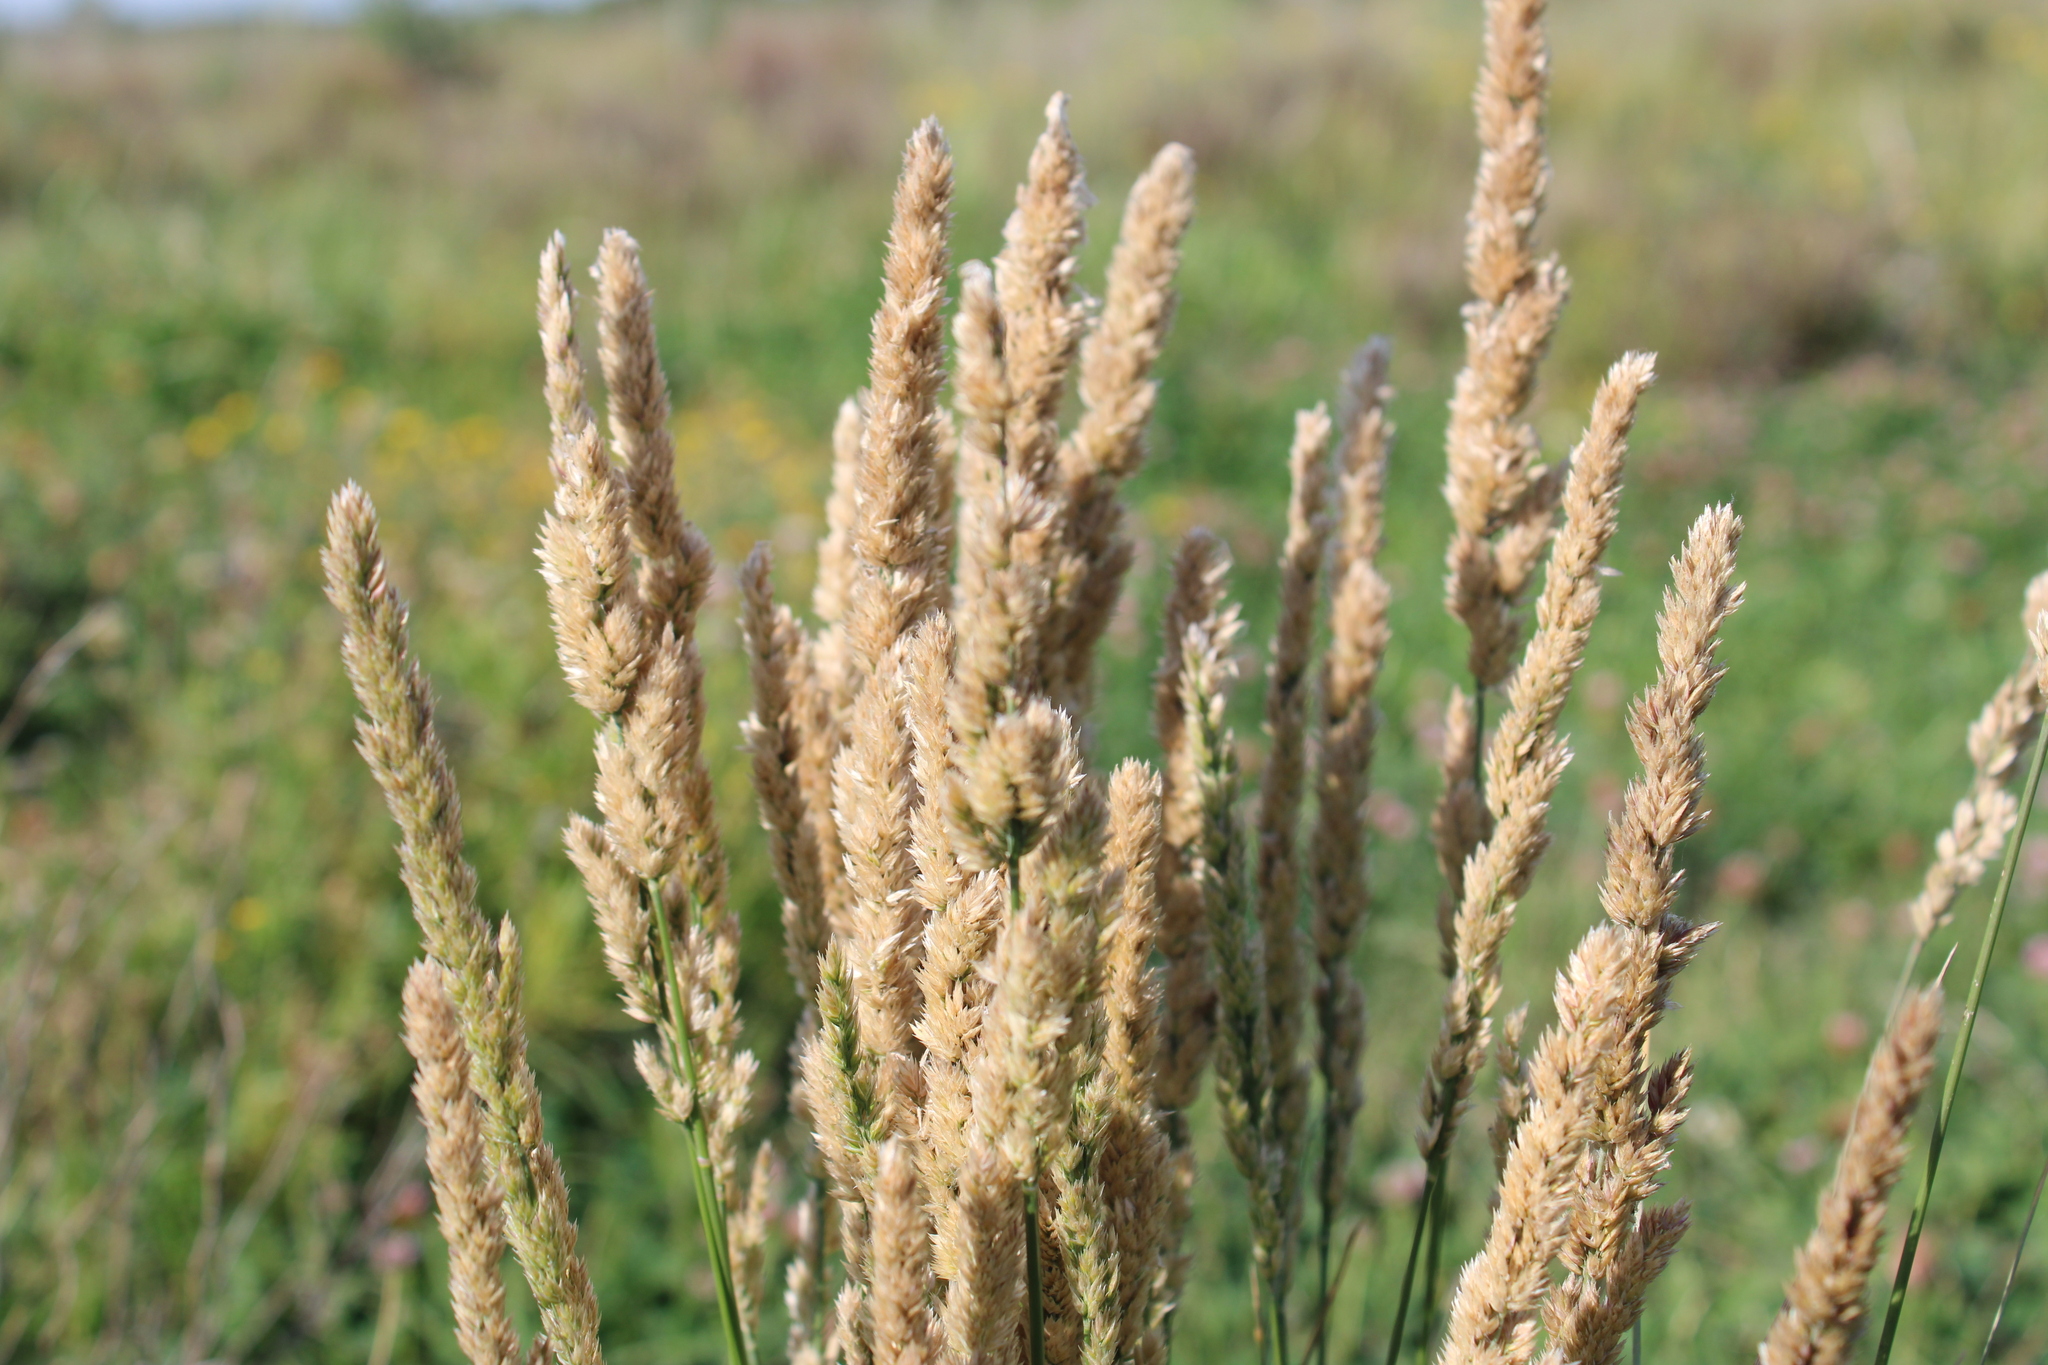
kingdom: Plantae
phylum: Tracheophyta
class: Liliopsida
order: Poales
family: Poaceae
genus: Poa
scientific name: Poa lanigera
